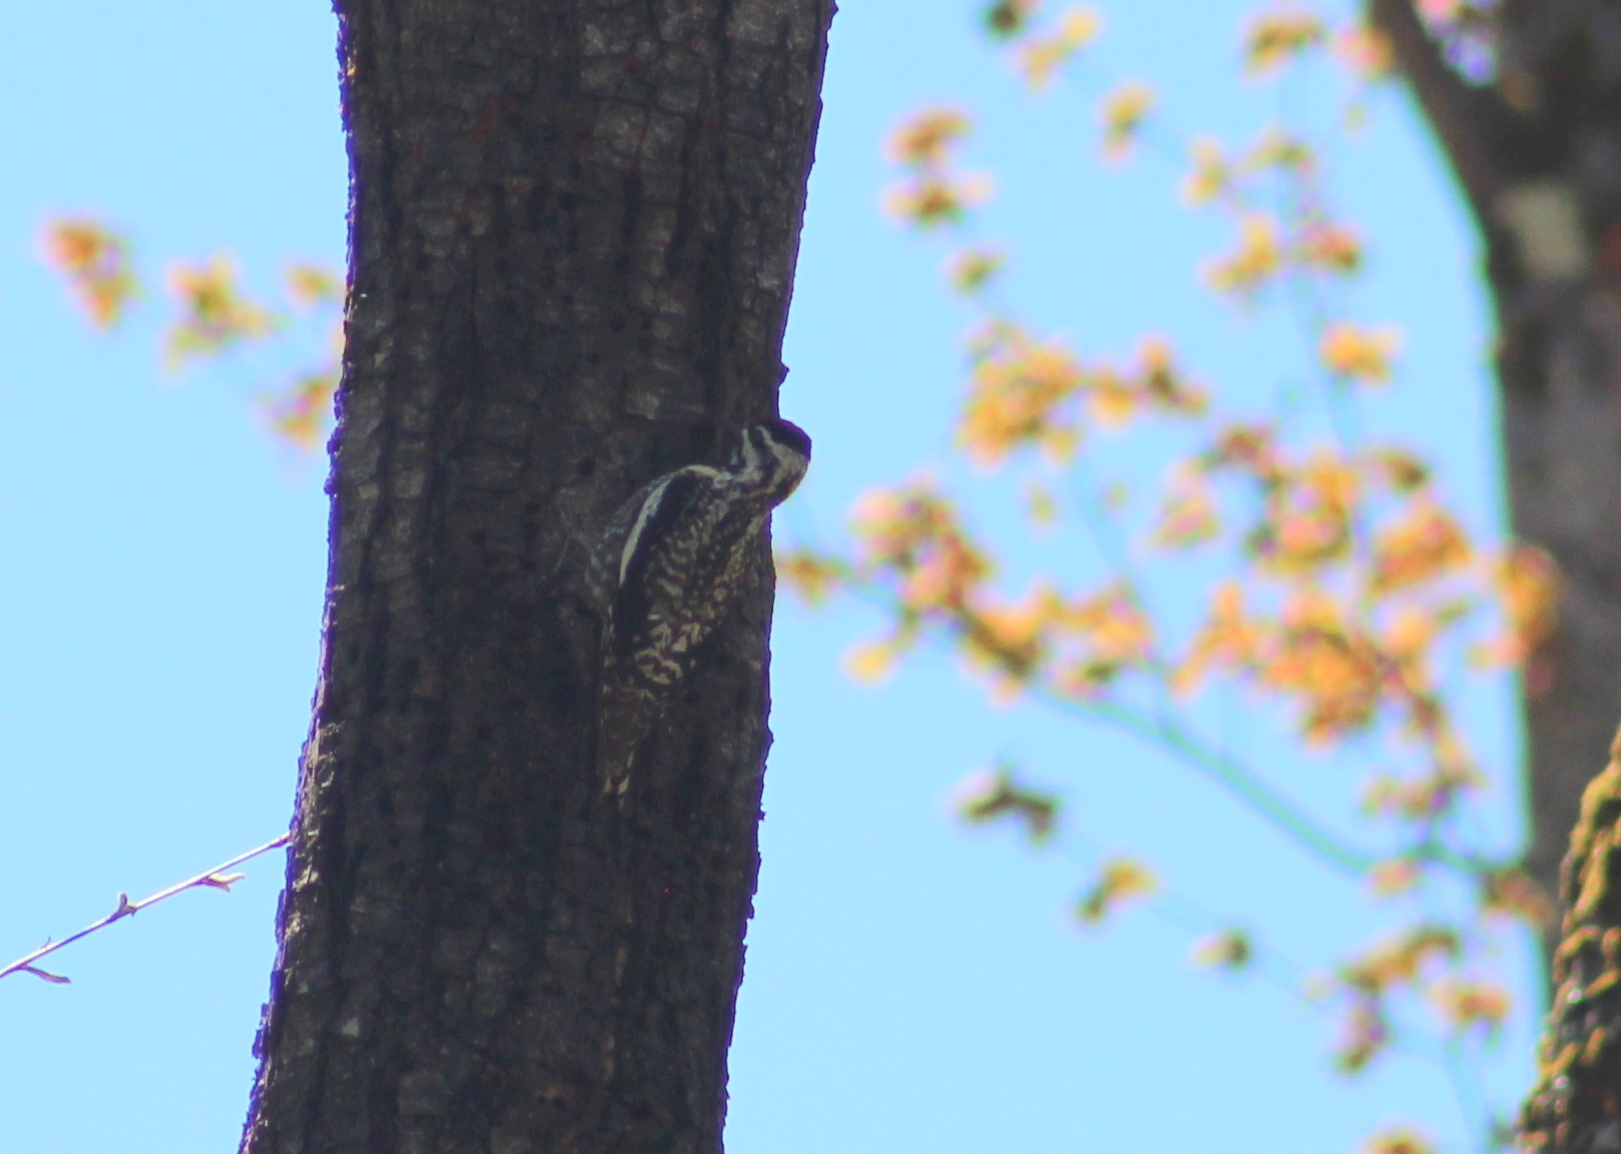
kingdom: Animalia
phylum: Chordata
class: Aves
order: Piciformes
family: Picidae
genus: Sphyrapicus
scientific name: Sphyrapicus varius
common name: Yellow-bellied sapsucker
